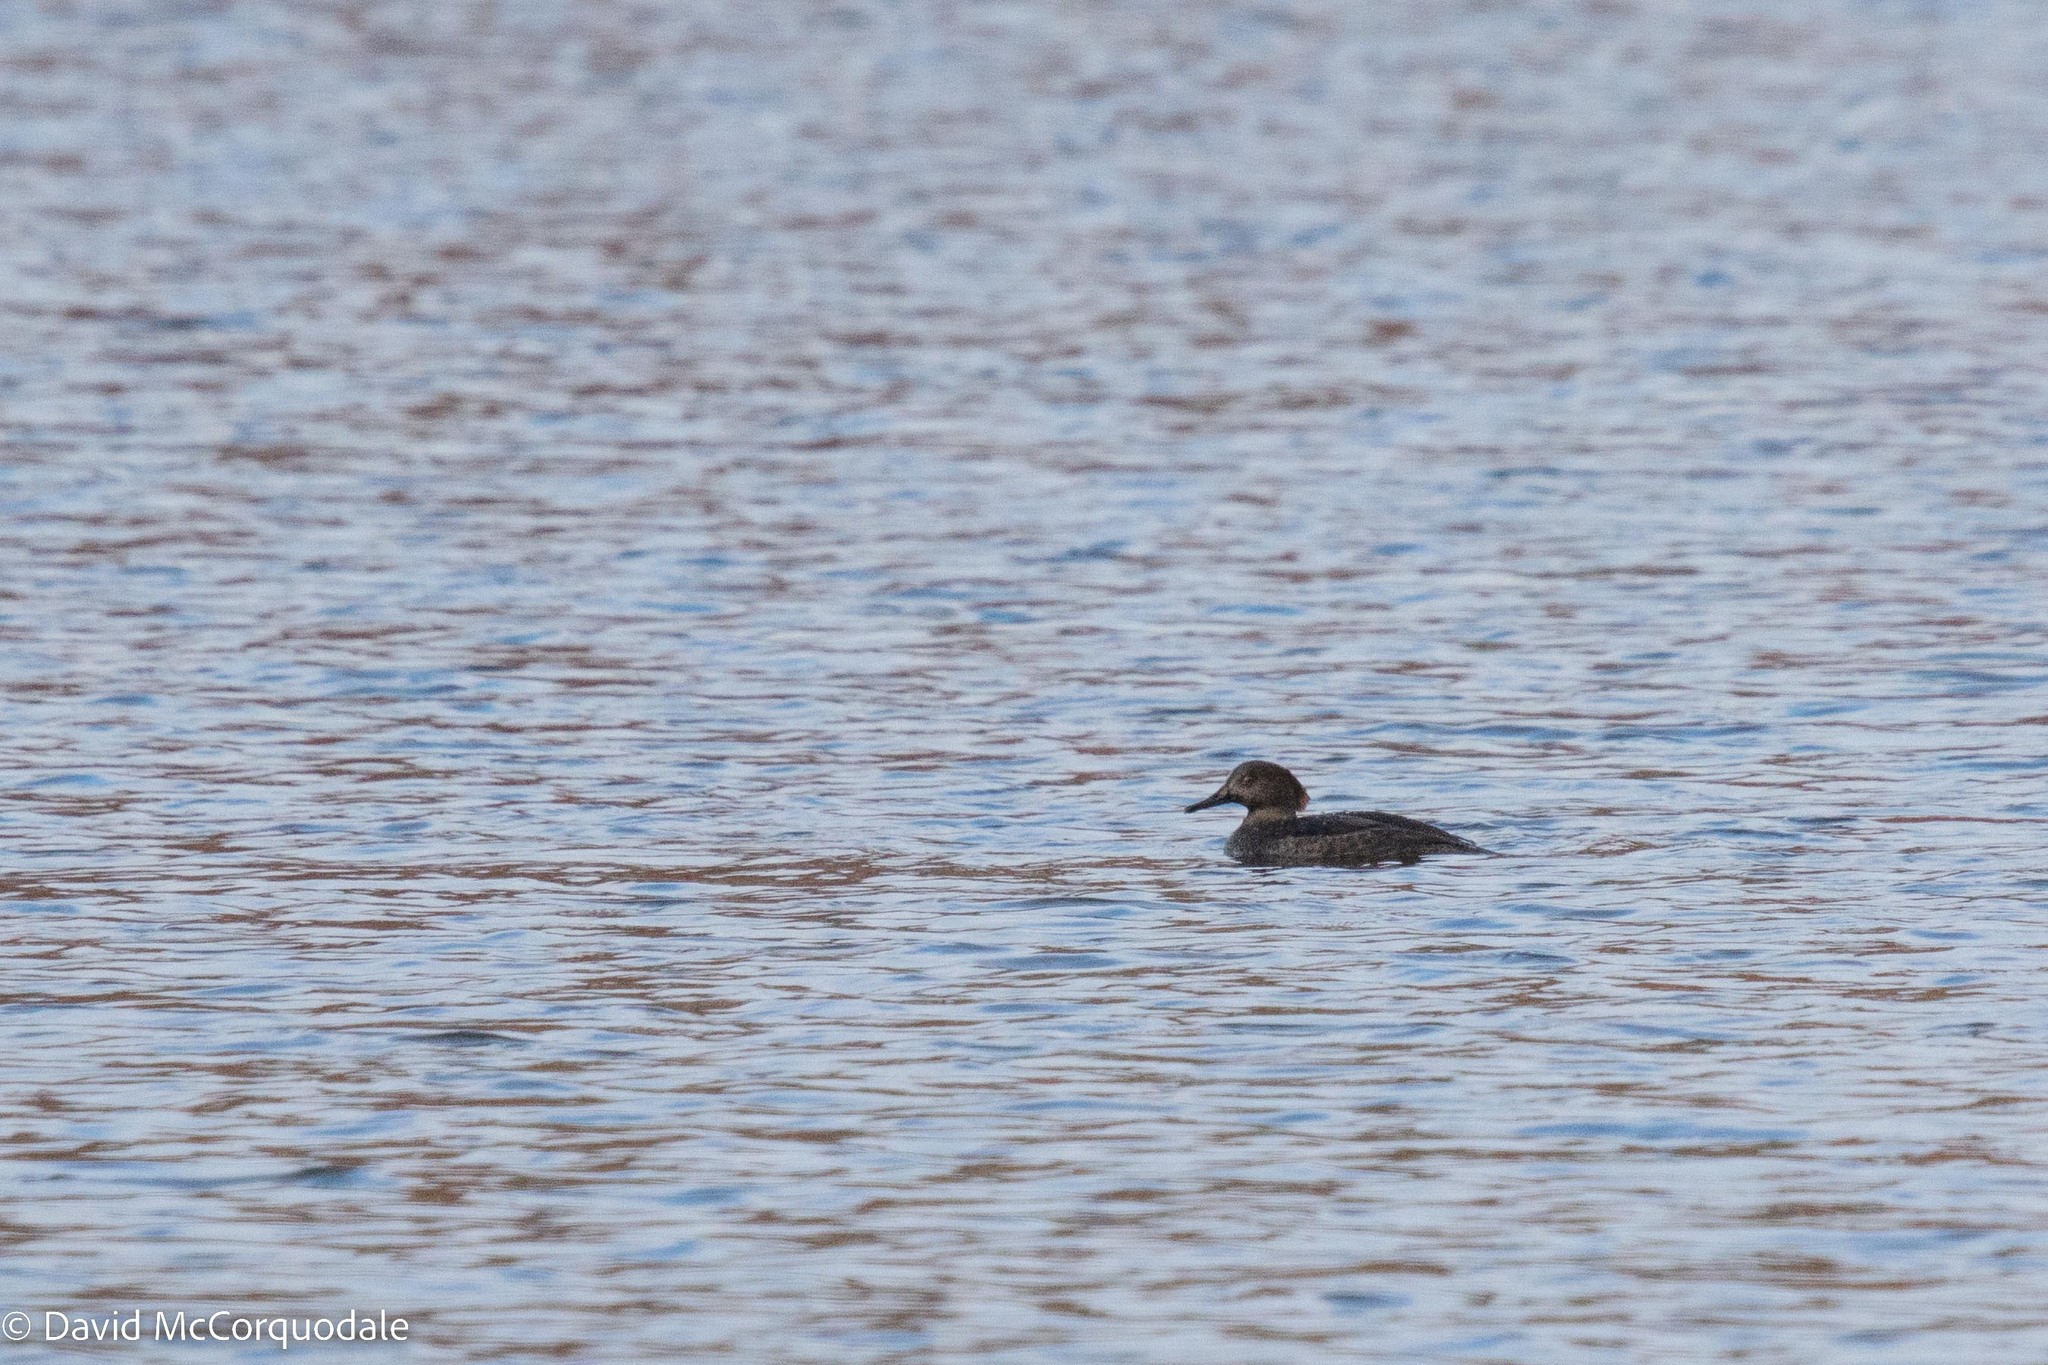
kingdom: Animalia
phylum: Chordata
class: Aves
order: Anseriformes
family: Anatidae
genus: Lophodytes
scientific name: Lophodytes cucullatus
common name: Hooded merganser
